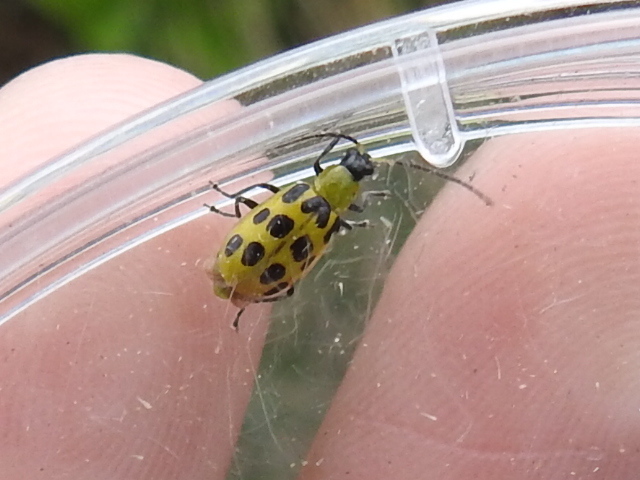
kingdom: Animalia
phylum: Arthropoda
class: Insecta
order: Coleoptera
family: Chrysomelidae
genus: Diabrotica
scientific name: Diabrotica undecimpunctata
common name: Spotted cucumber beetle
